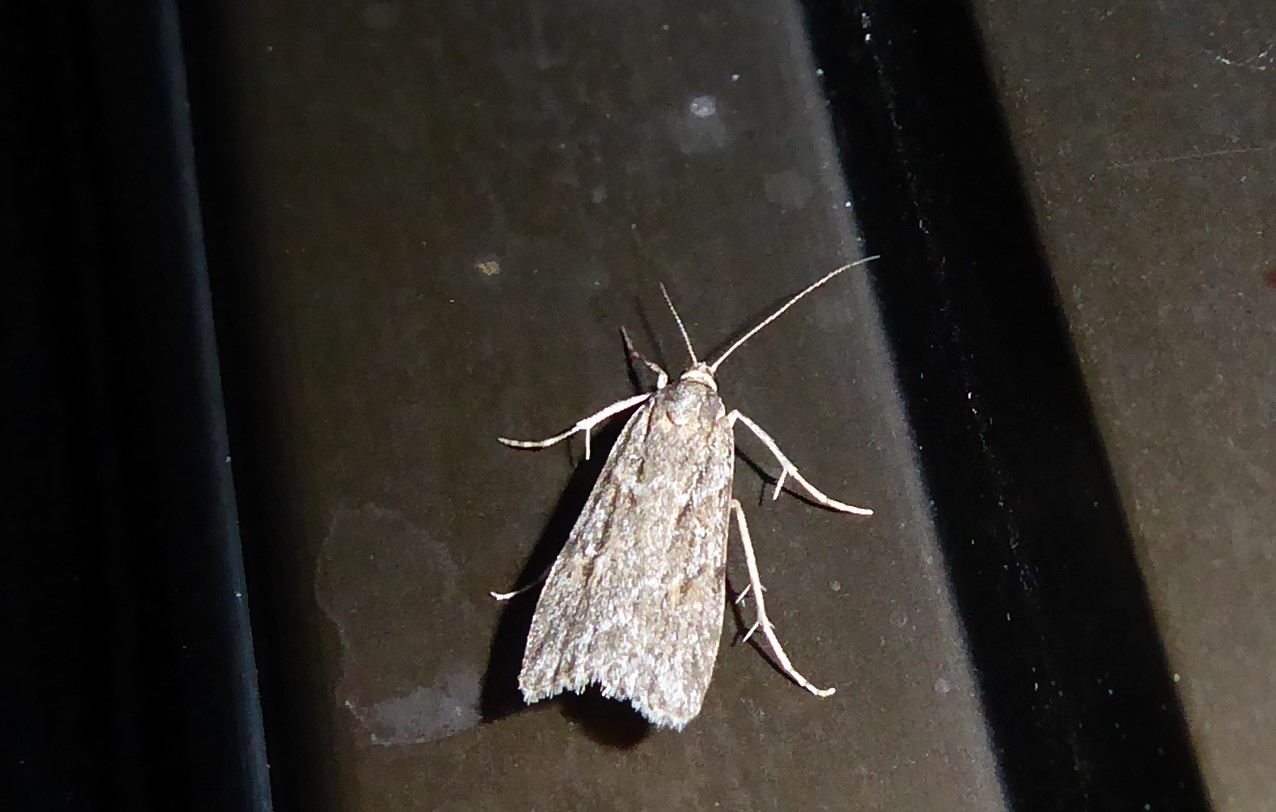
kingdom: Animalia
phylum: Arthropoda
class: Insecta
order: Lepidoptera
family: Crambidae
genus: Scoparia
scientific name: Scoparia chalicodes
